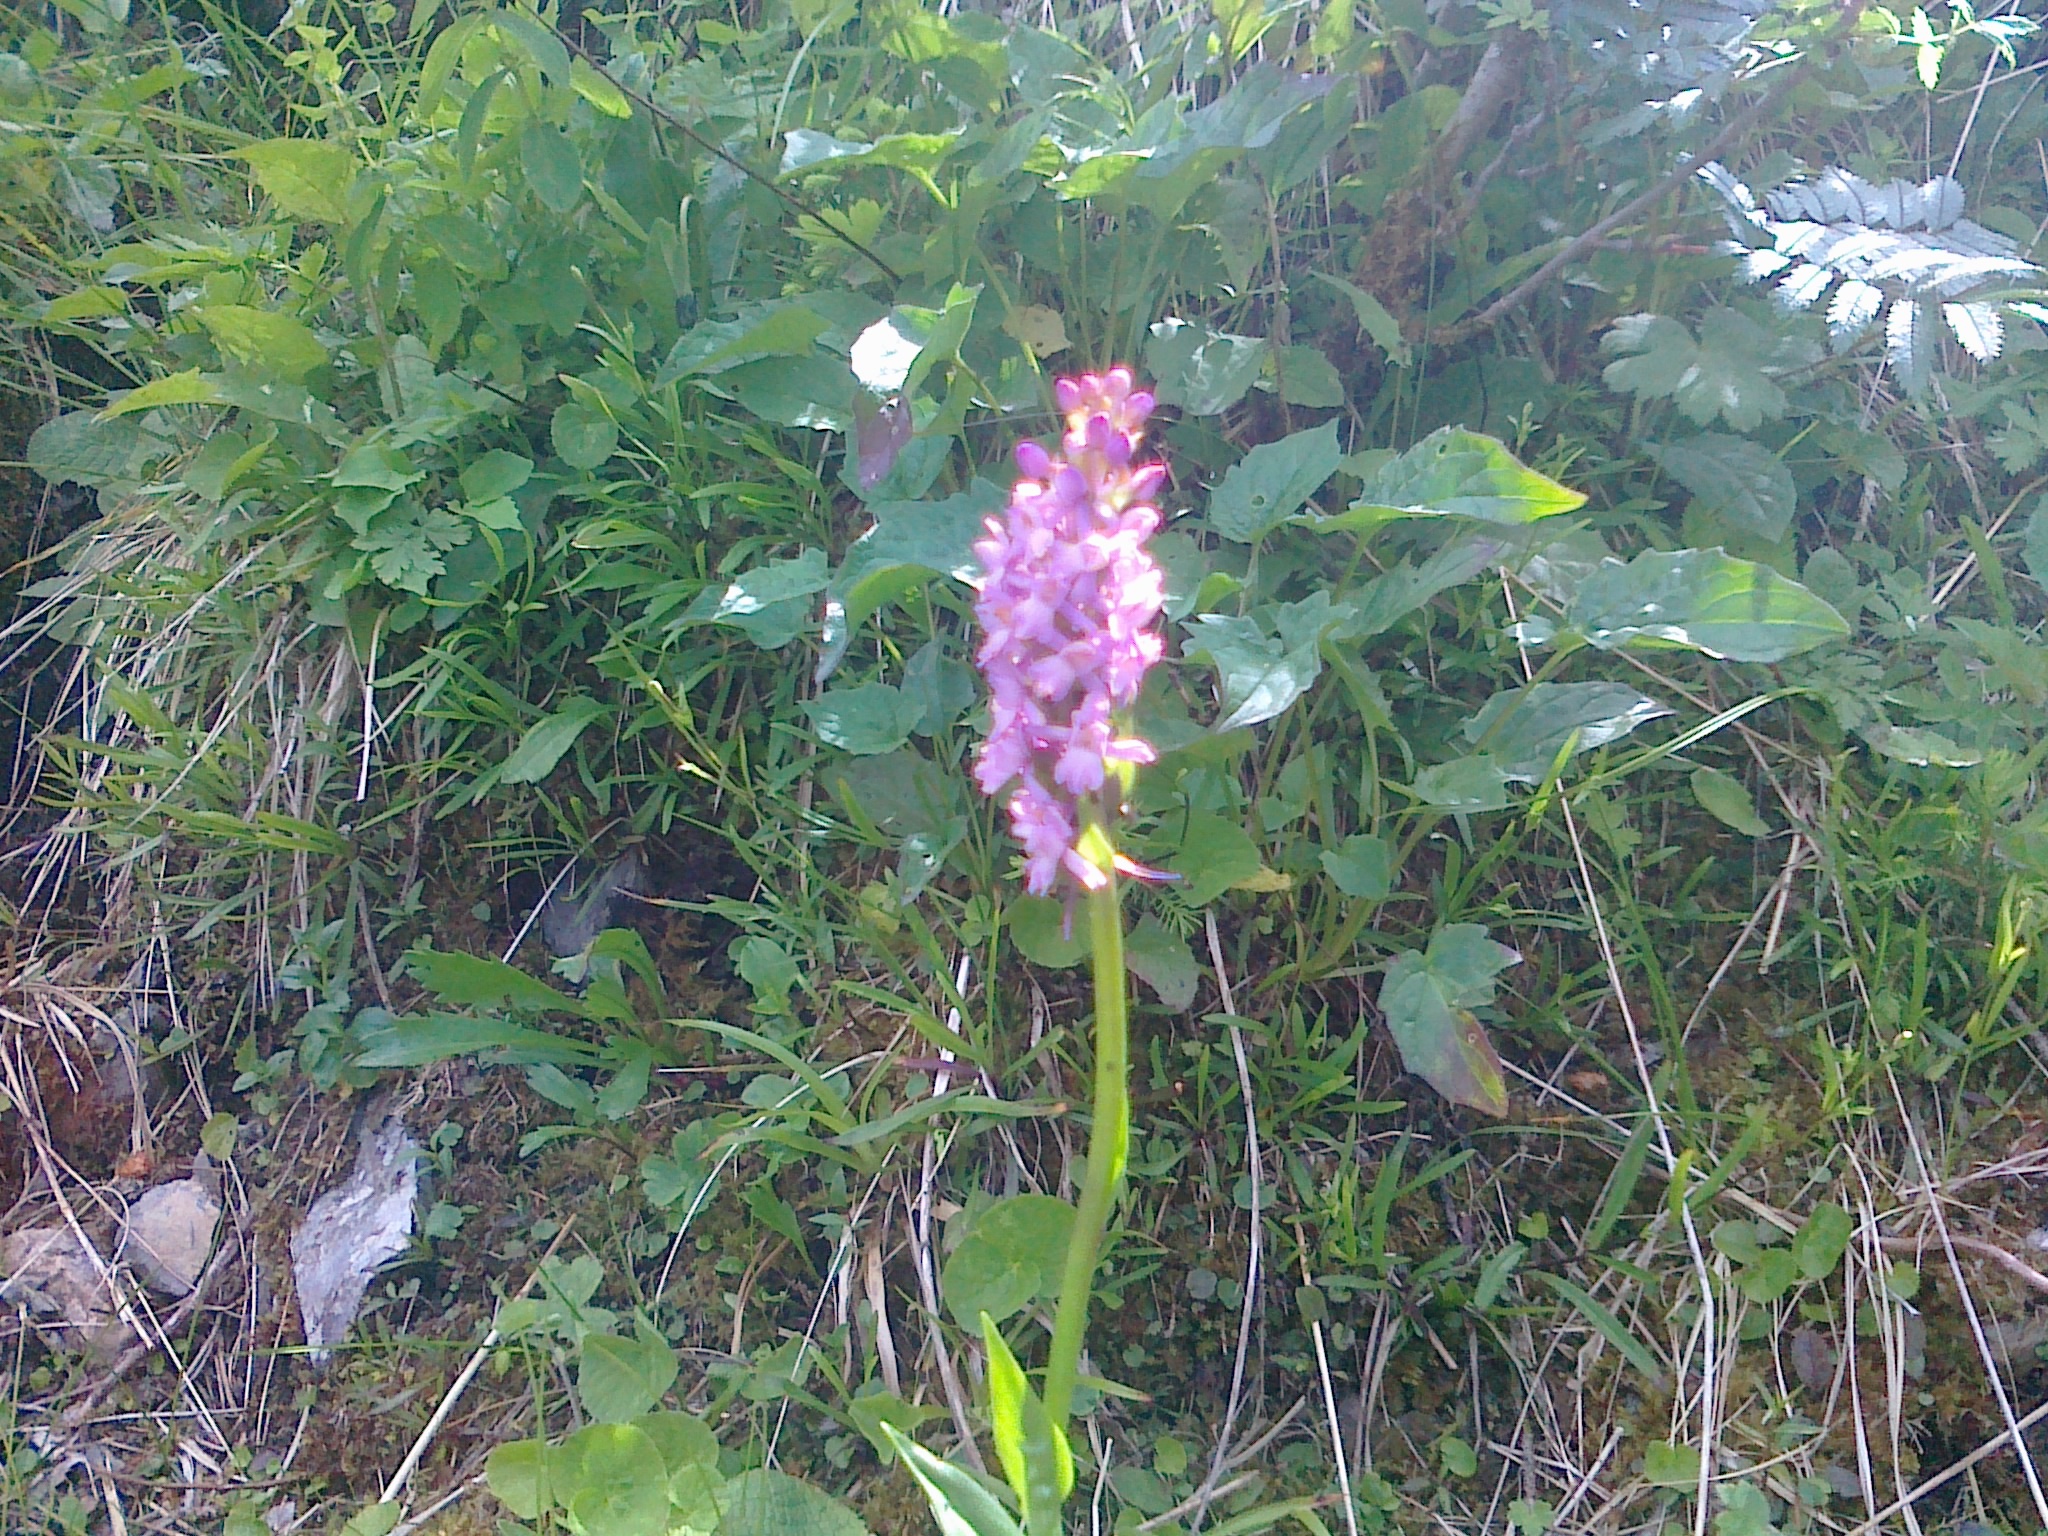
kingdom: Plantae
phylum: Tracheophyta
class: Liliopsida
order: Asparagales
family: Orchidaceae
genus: Gymnadenia
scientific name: Gymnadenia conopsea
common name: Fragrant orchid
